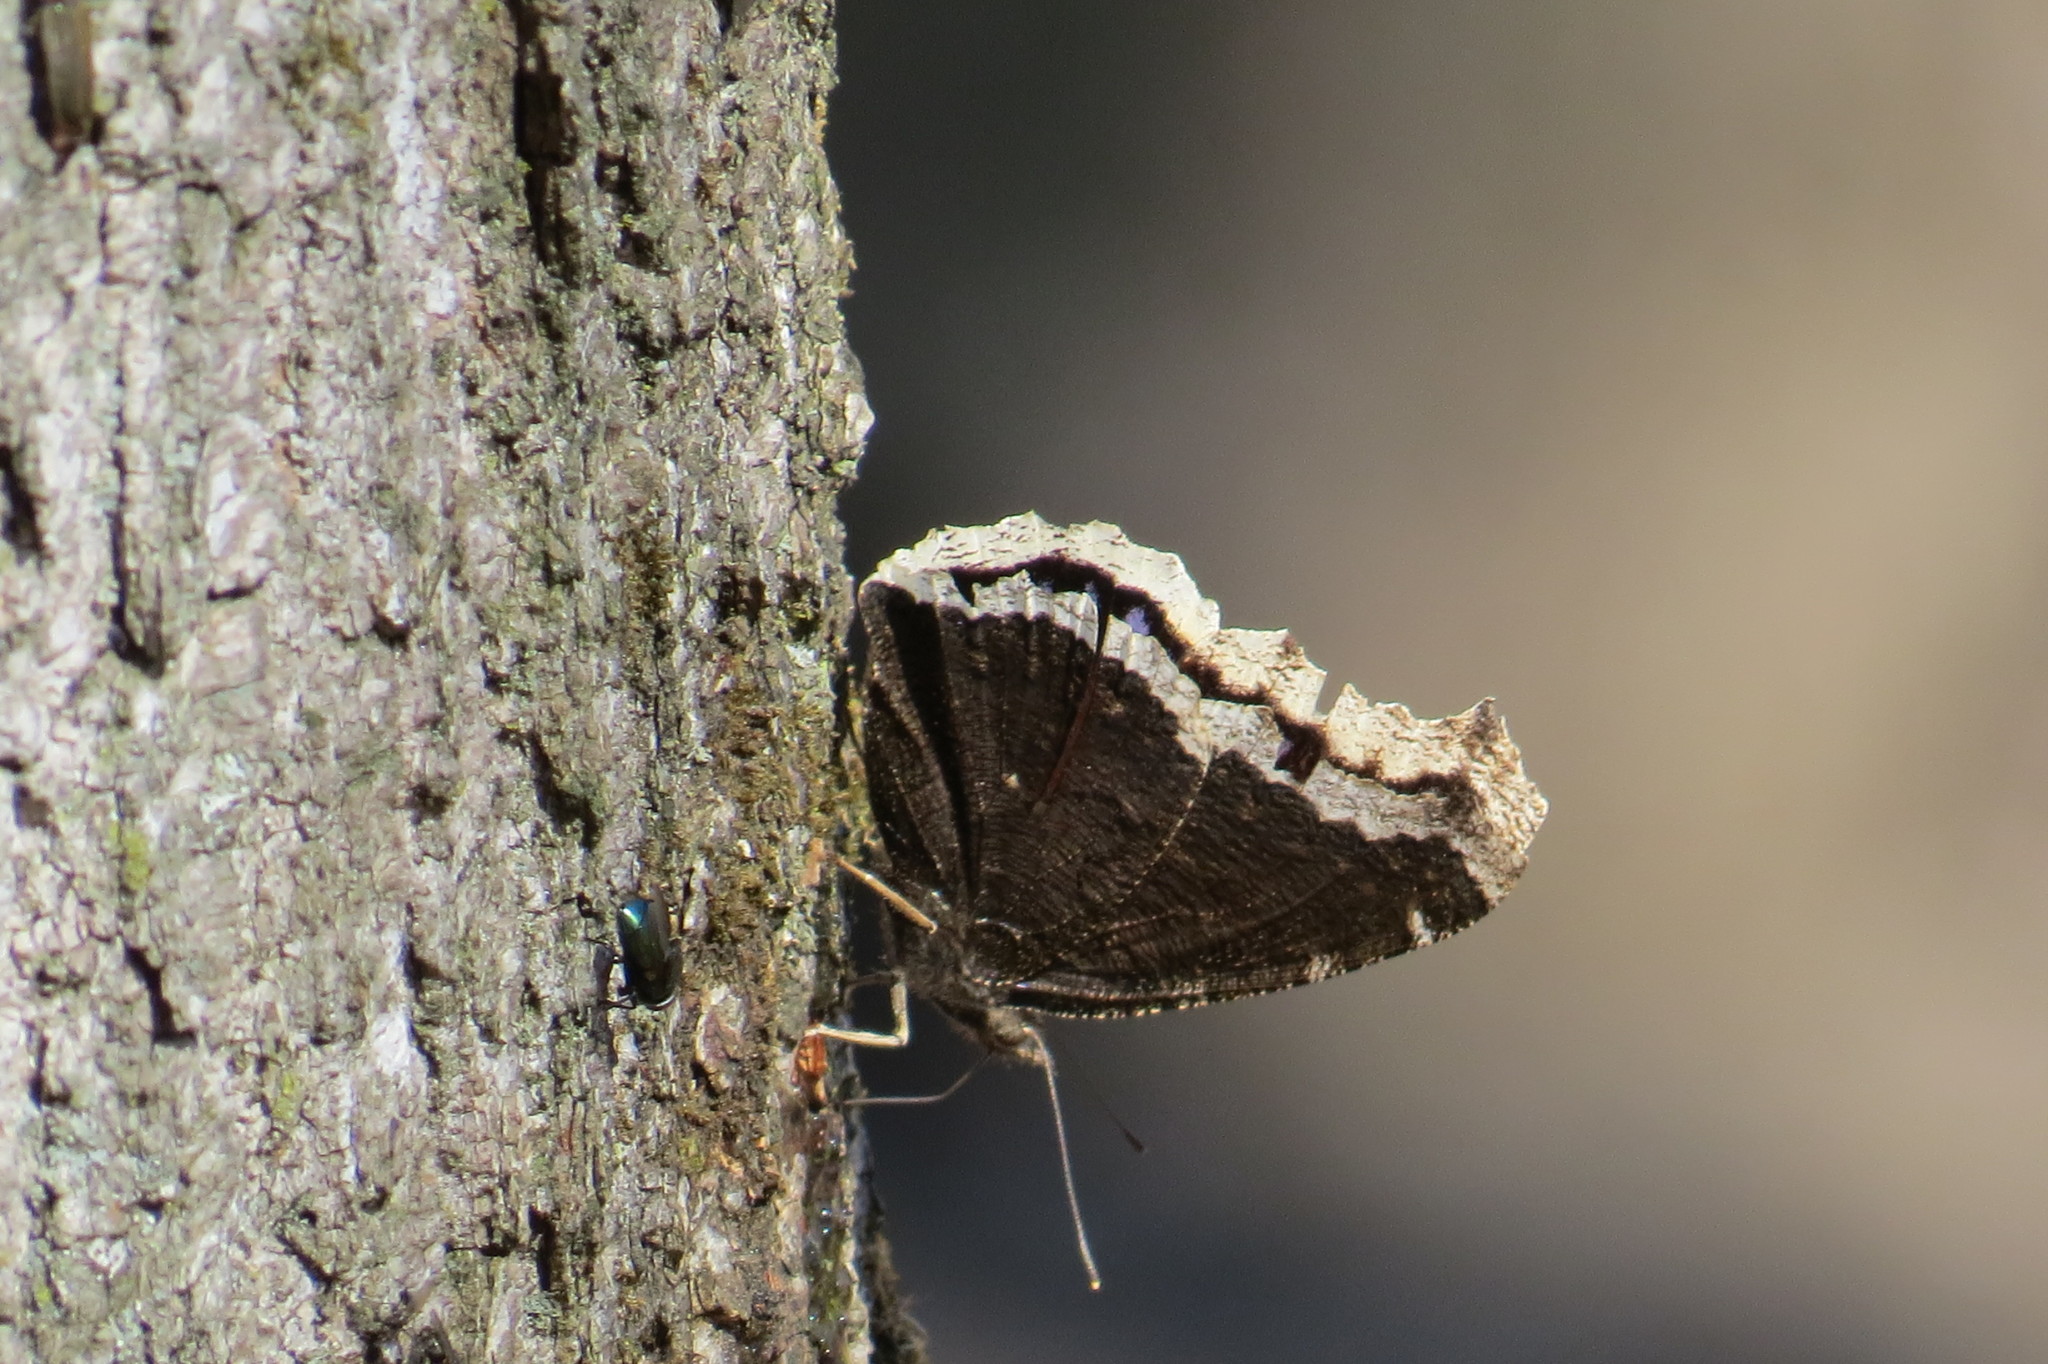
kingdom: Animalia
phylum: Arthropoda
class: Insecta
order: Lepidoptera
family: Nymphalidae
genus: Nymphalis
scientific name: Nymphalis antiopa
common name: Camberwell beauty
